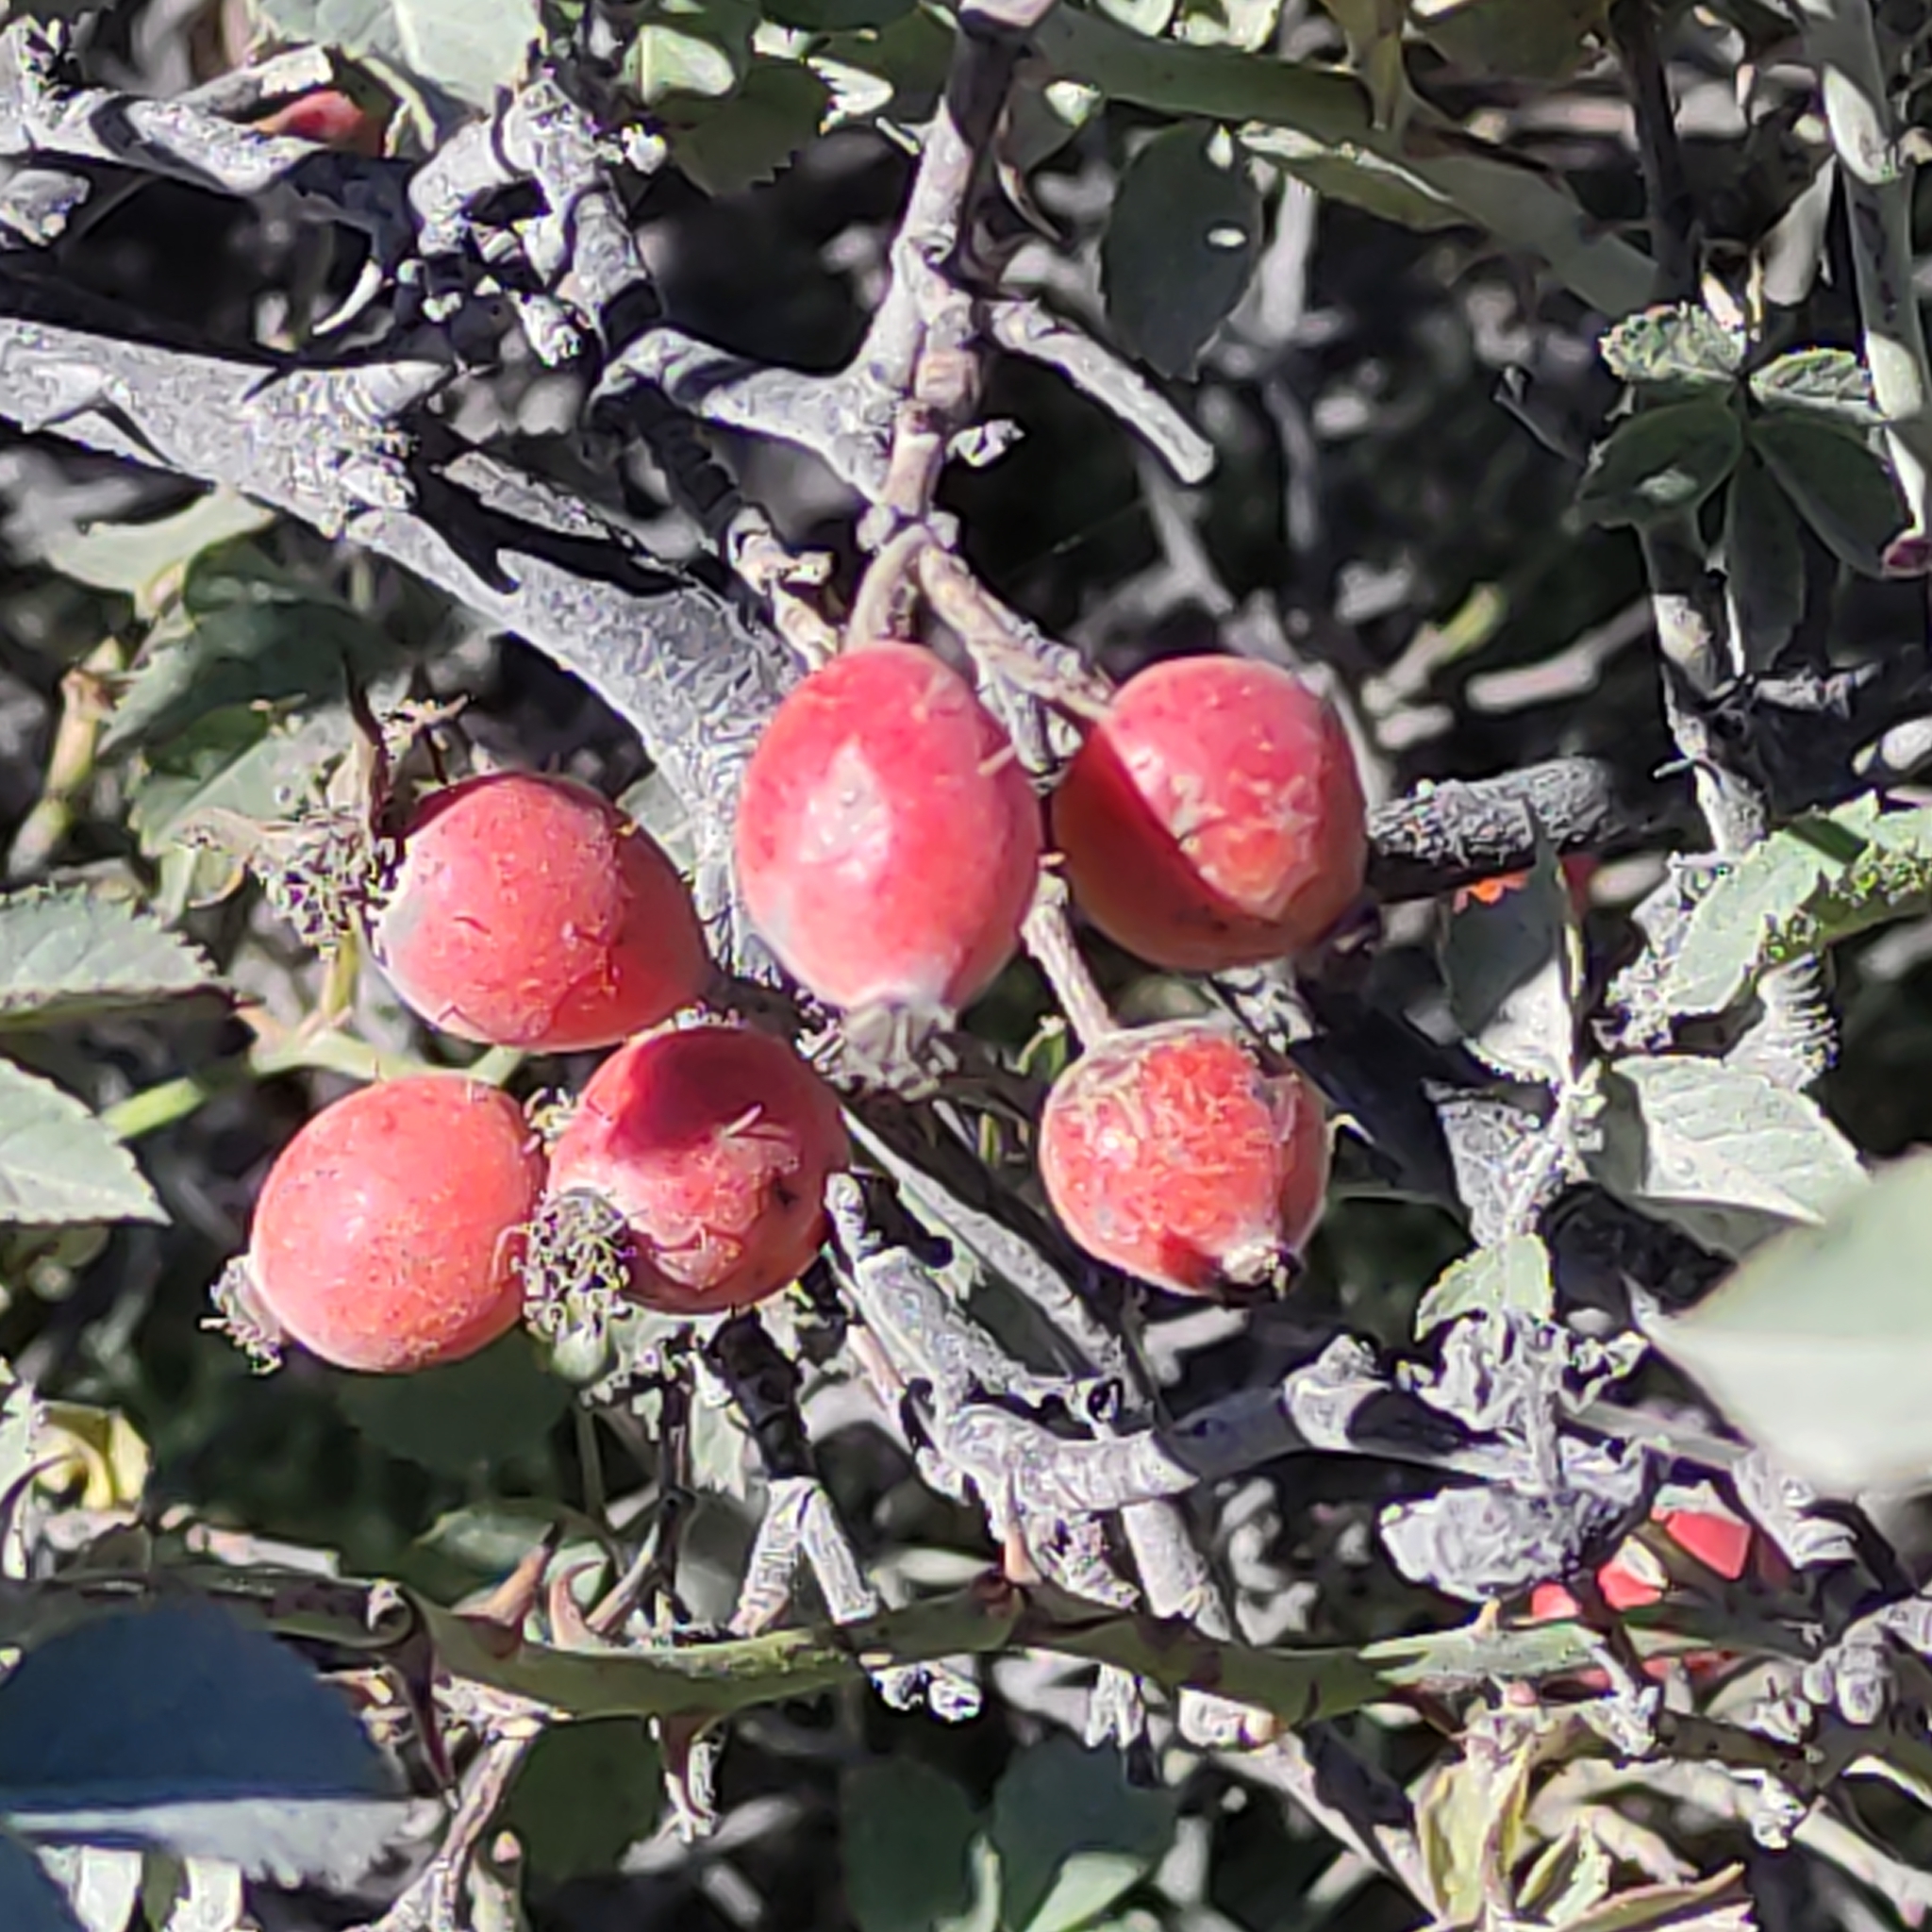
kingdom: Plantae
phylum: Tracheophyta
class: Magnoliopsida
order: Rosales
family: Rosaceae
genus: Rosa
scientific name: Rosa rubiginosa
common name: Sweet-briar
